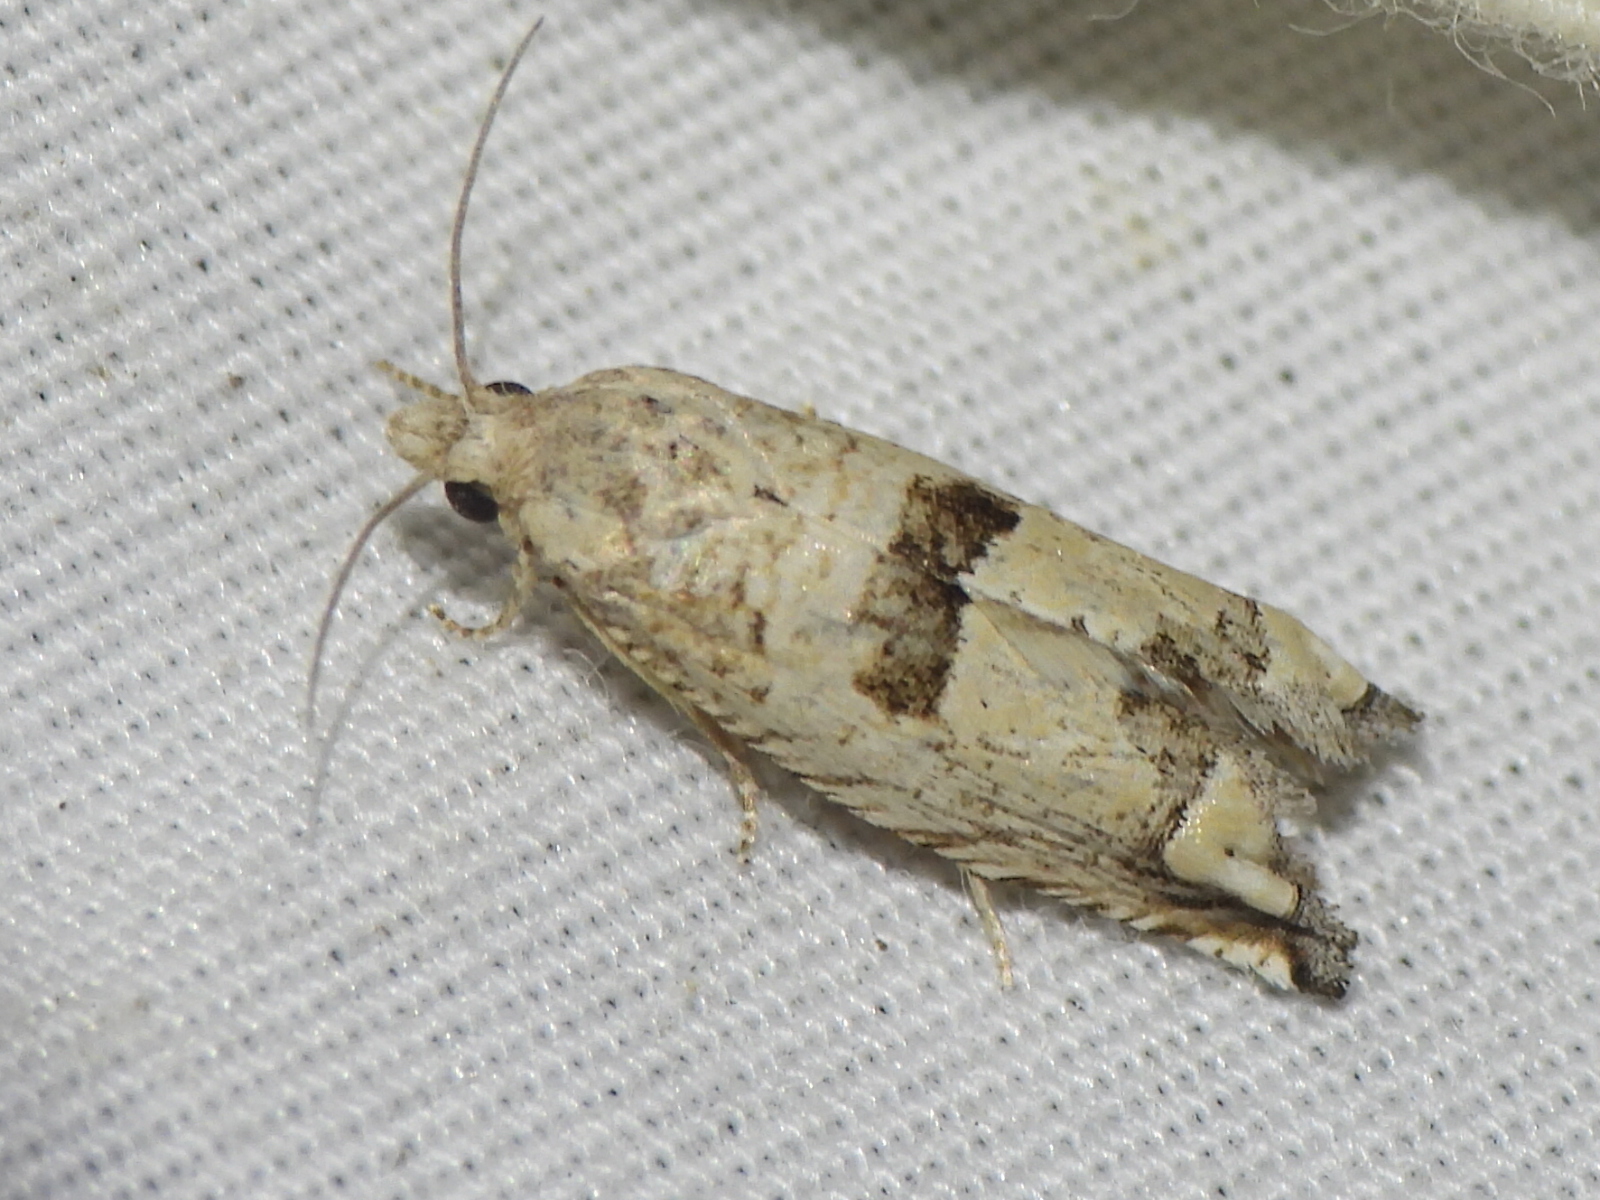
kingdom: Animalia
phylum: Arthropoda
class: Insecta
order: Lepidoptera
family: Tortricidae
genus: Suleima
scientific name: Suleima helianthana
